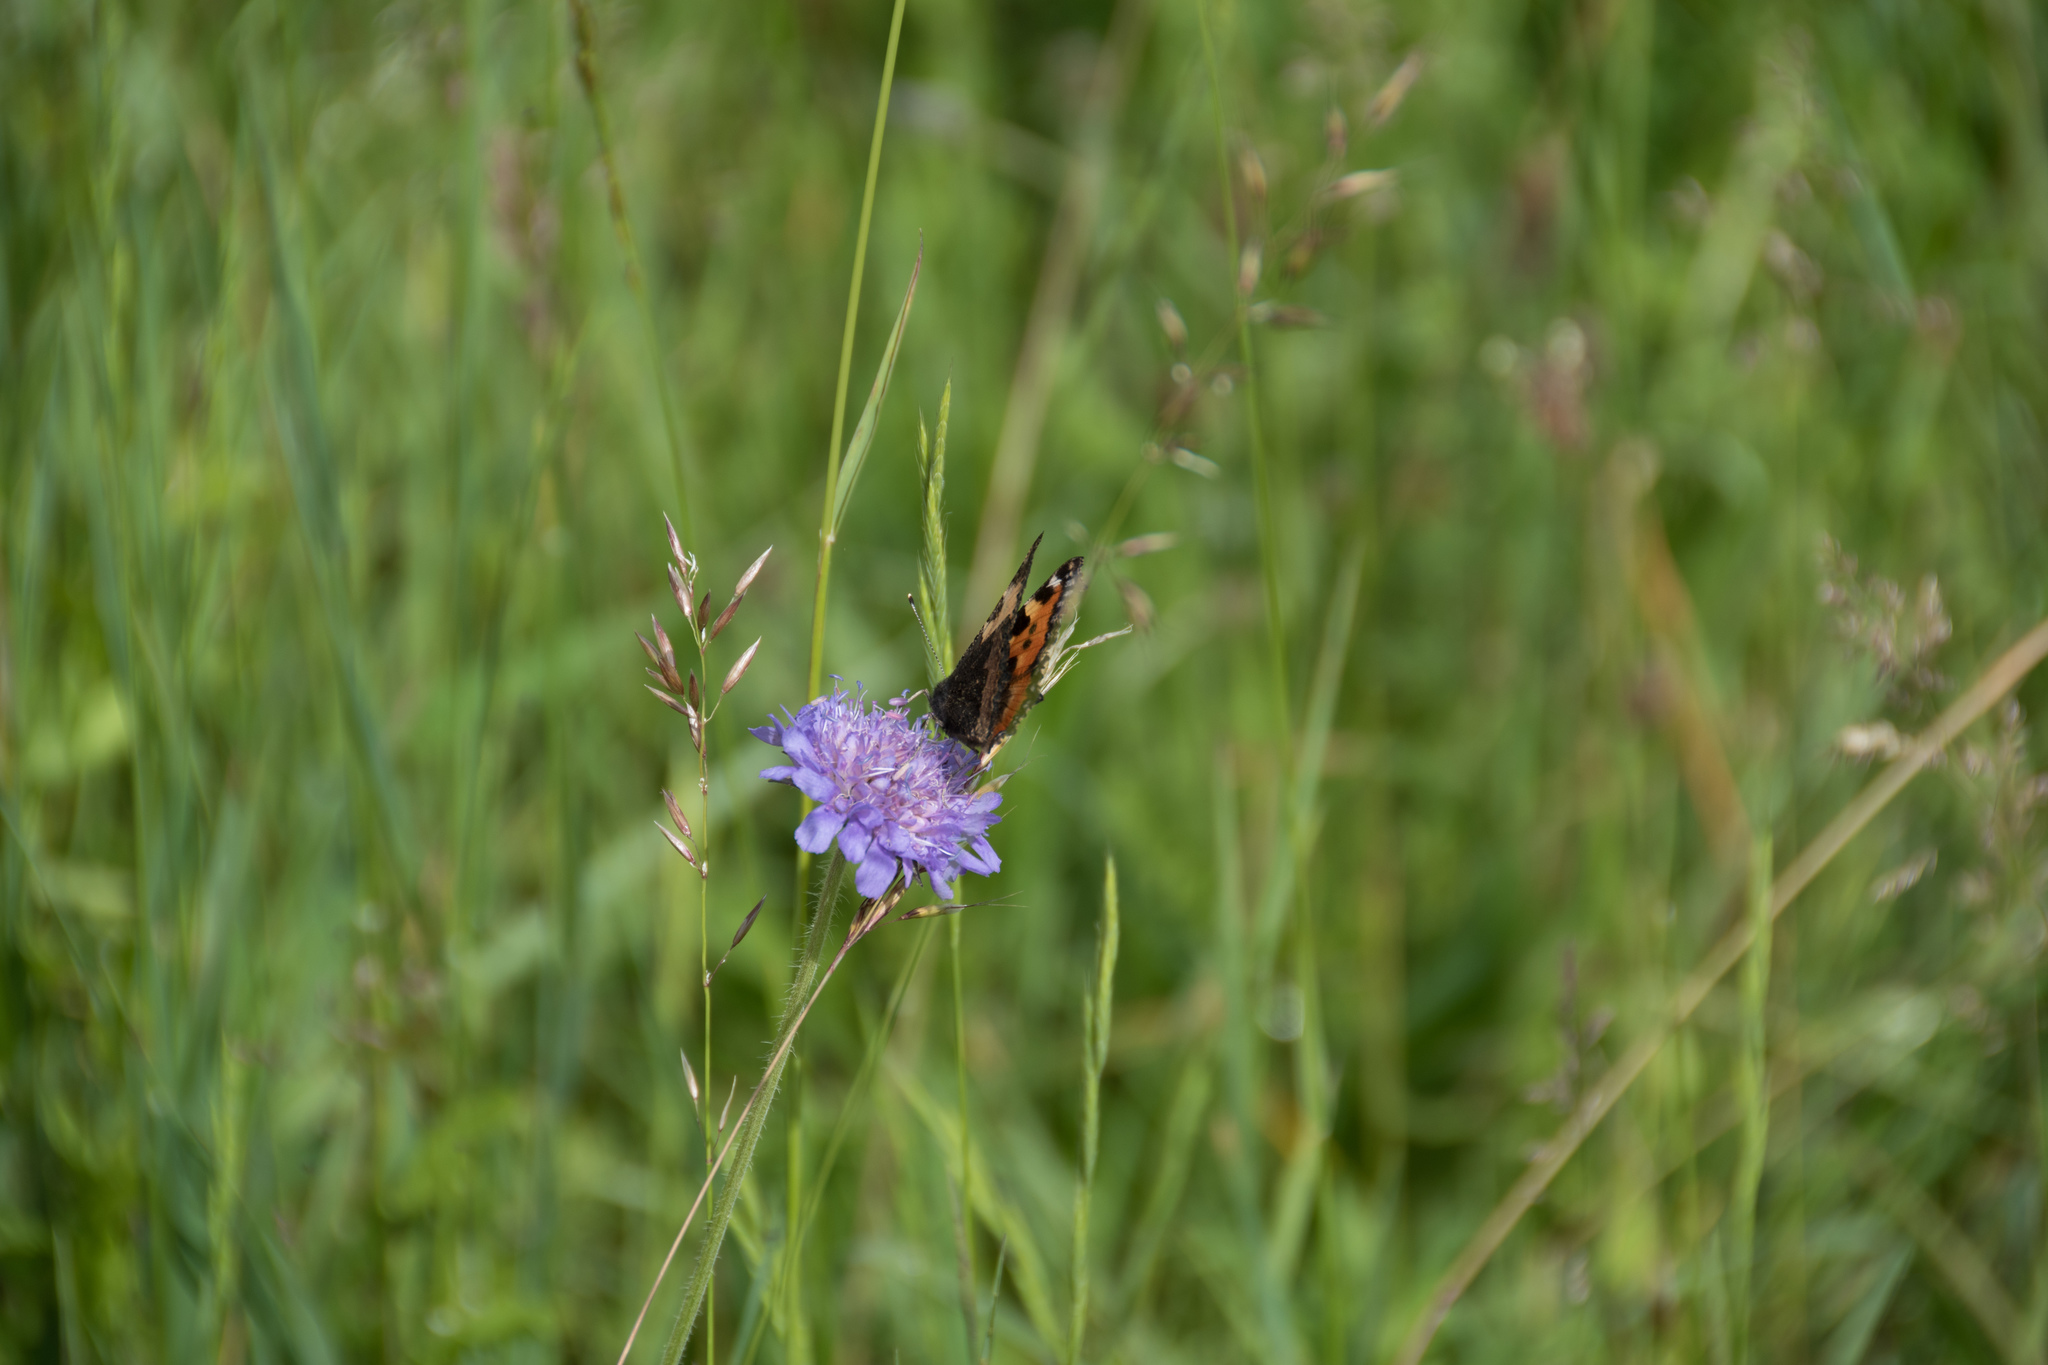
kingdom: Animalia
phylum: Arthropoda
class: Insecta
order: Lepidoptera
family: Nymphalidae
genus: Aglais
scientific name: Aglais urticae
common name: Small tortoiseshell
